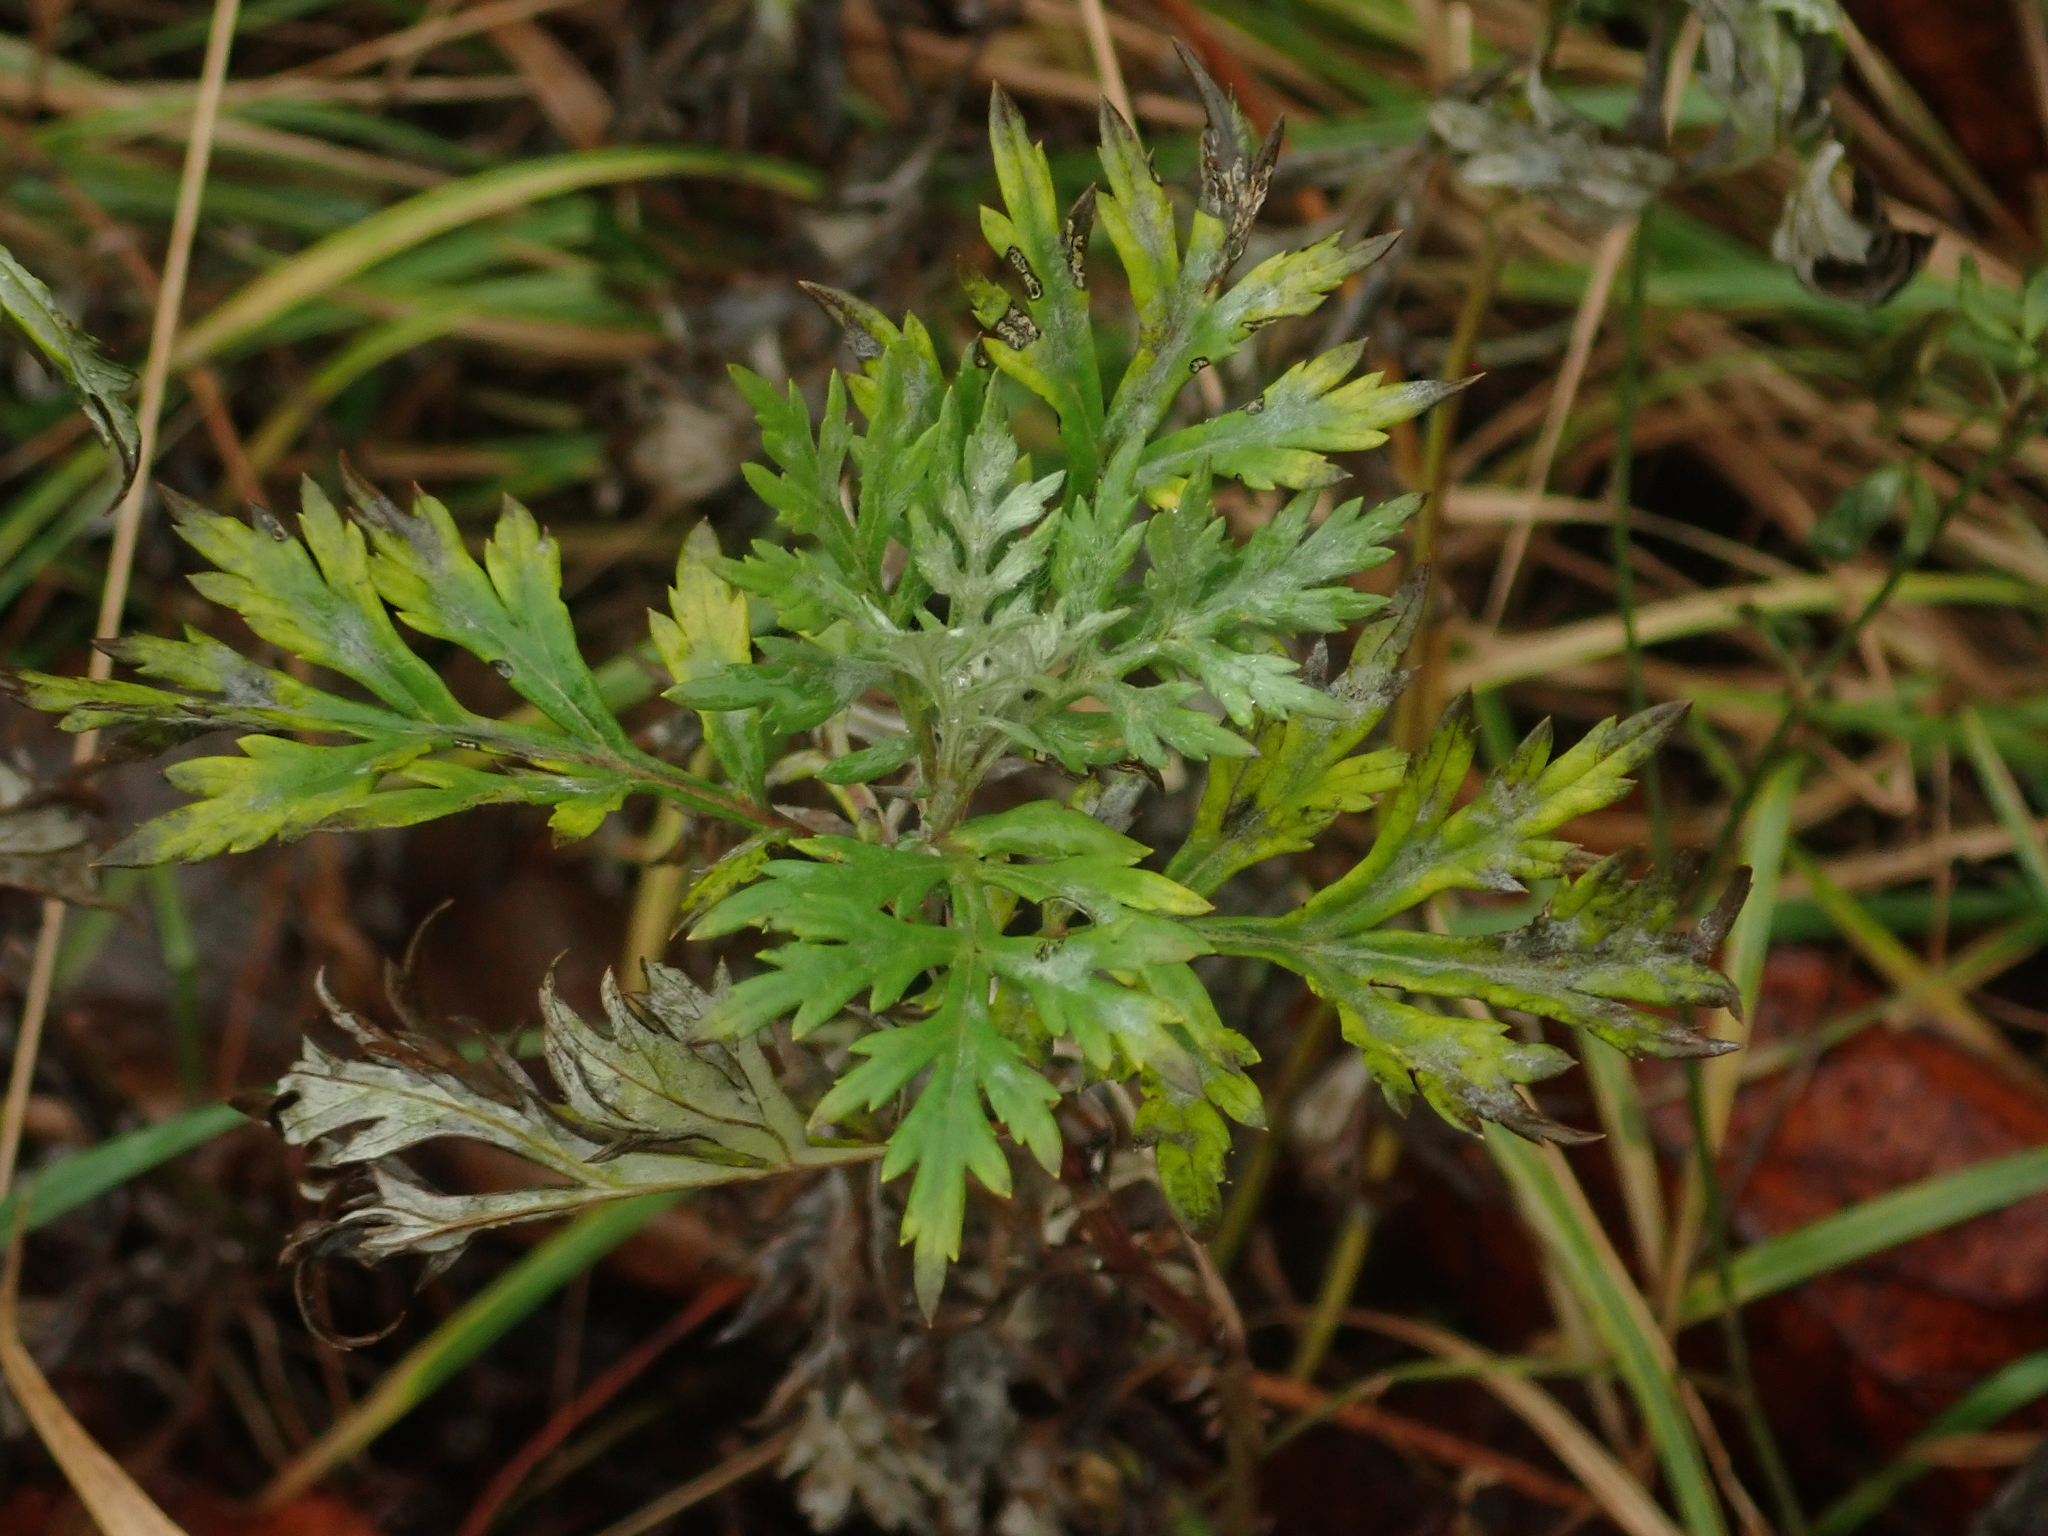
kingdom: Plantae
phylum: Tracheophyta
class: Magnoliopsida
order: Asterales
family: Asteraceae
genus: Artemisia
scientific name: Artemisia vulgaris
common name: Mugwort
